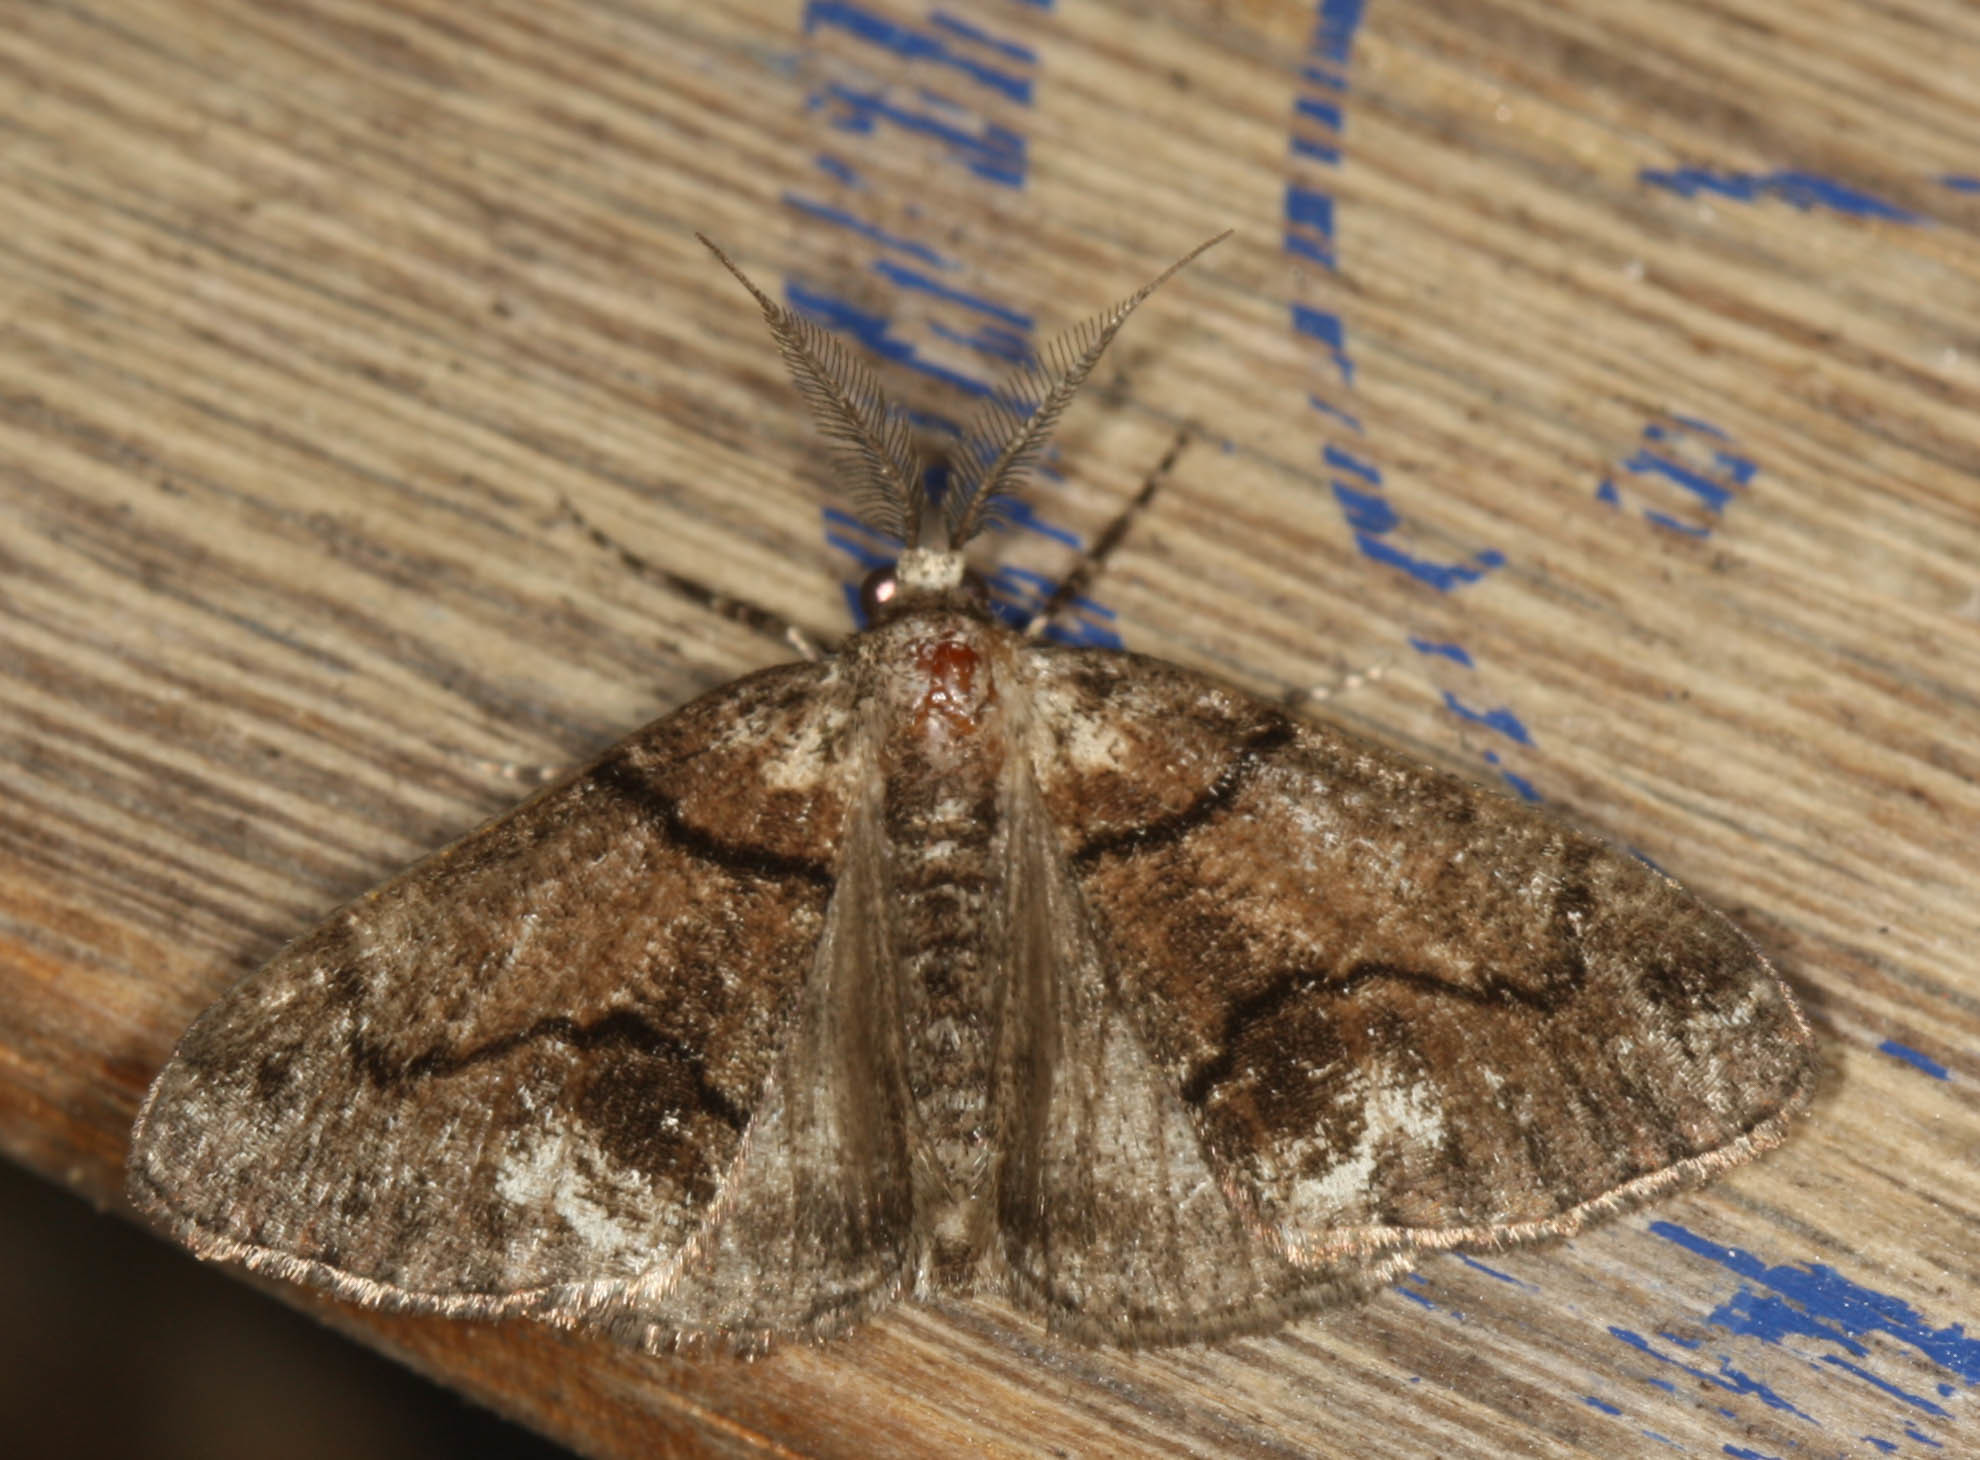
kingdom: Animalia
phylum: Arthropoda
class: Insecta
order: Lepidoptera
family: Geometridae
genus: Gabriola
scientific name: Gabriola dyari
